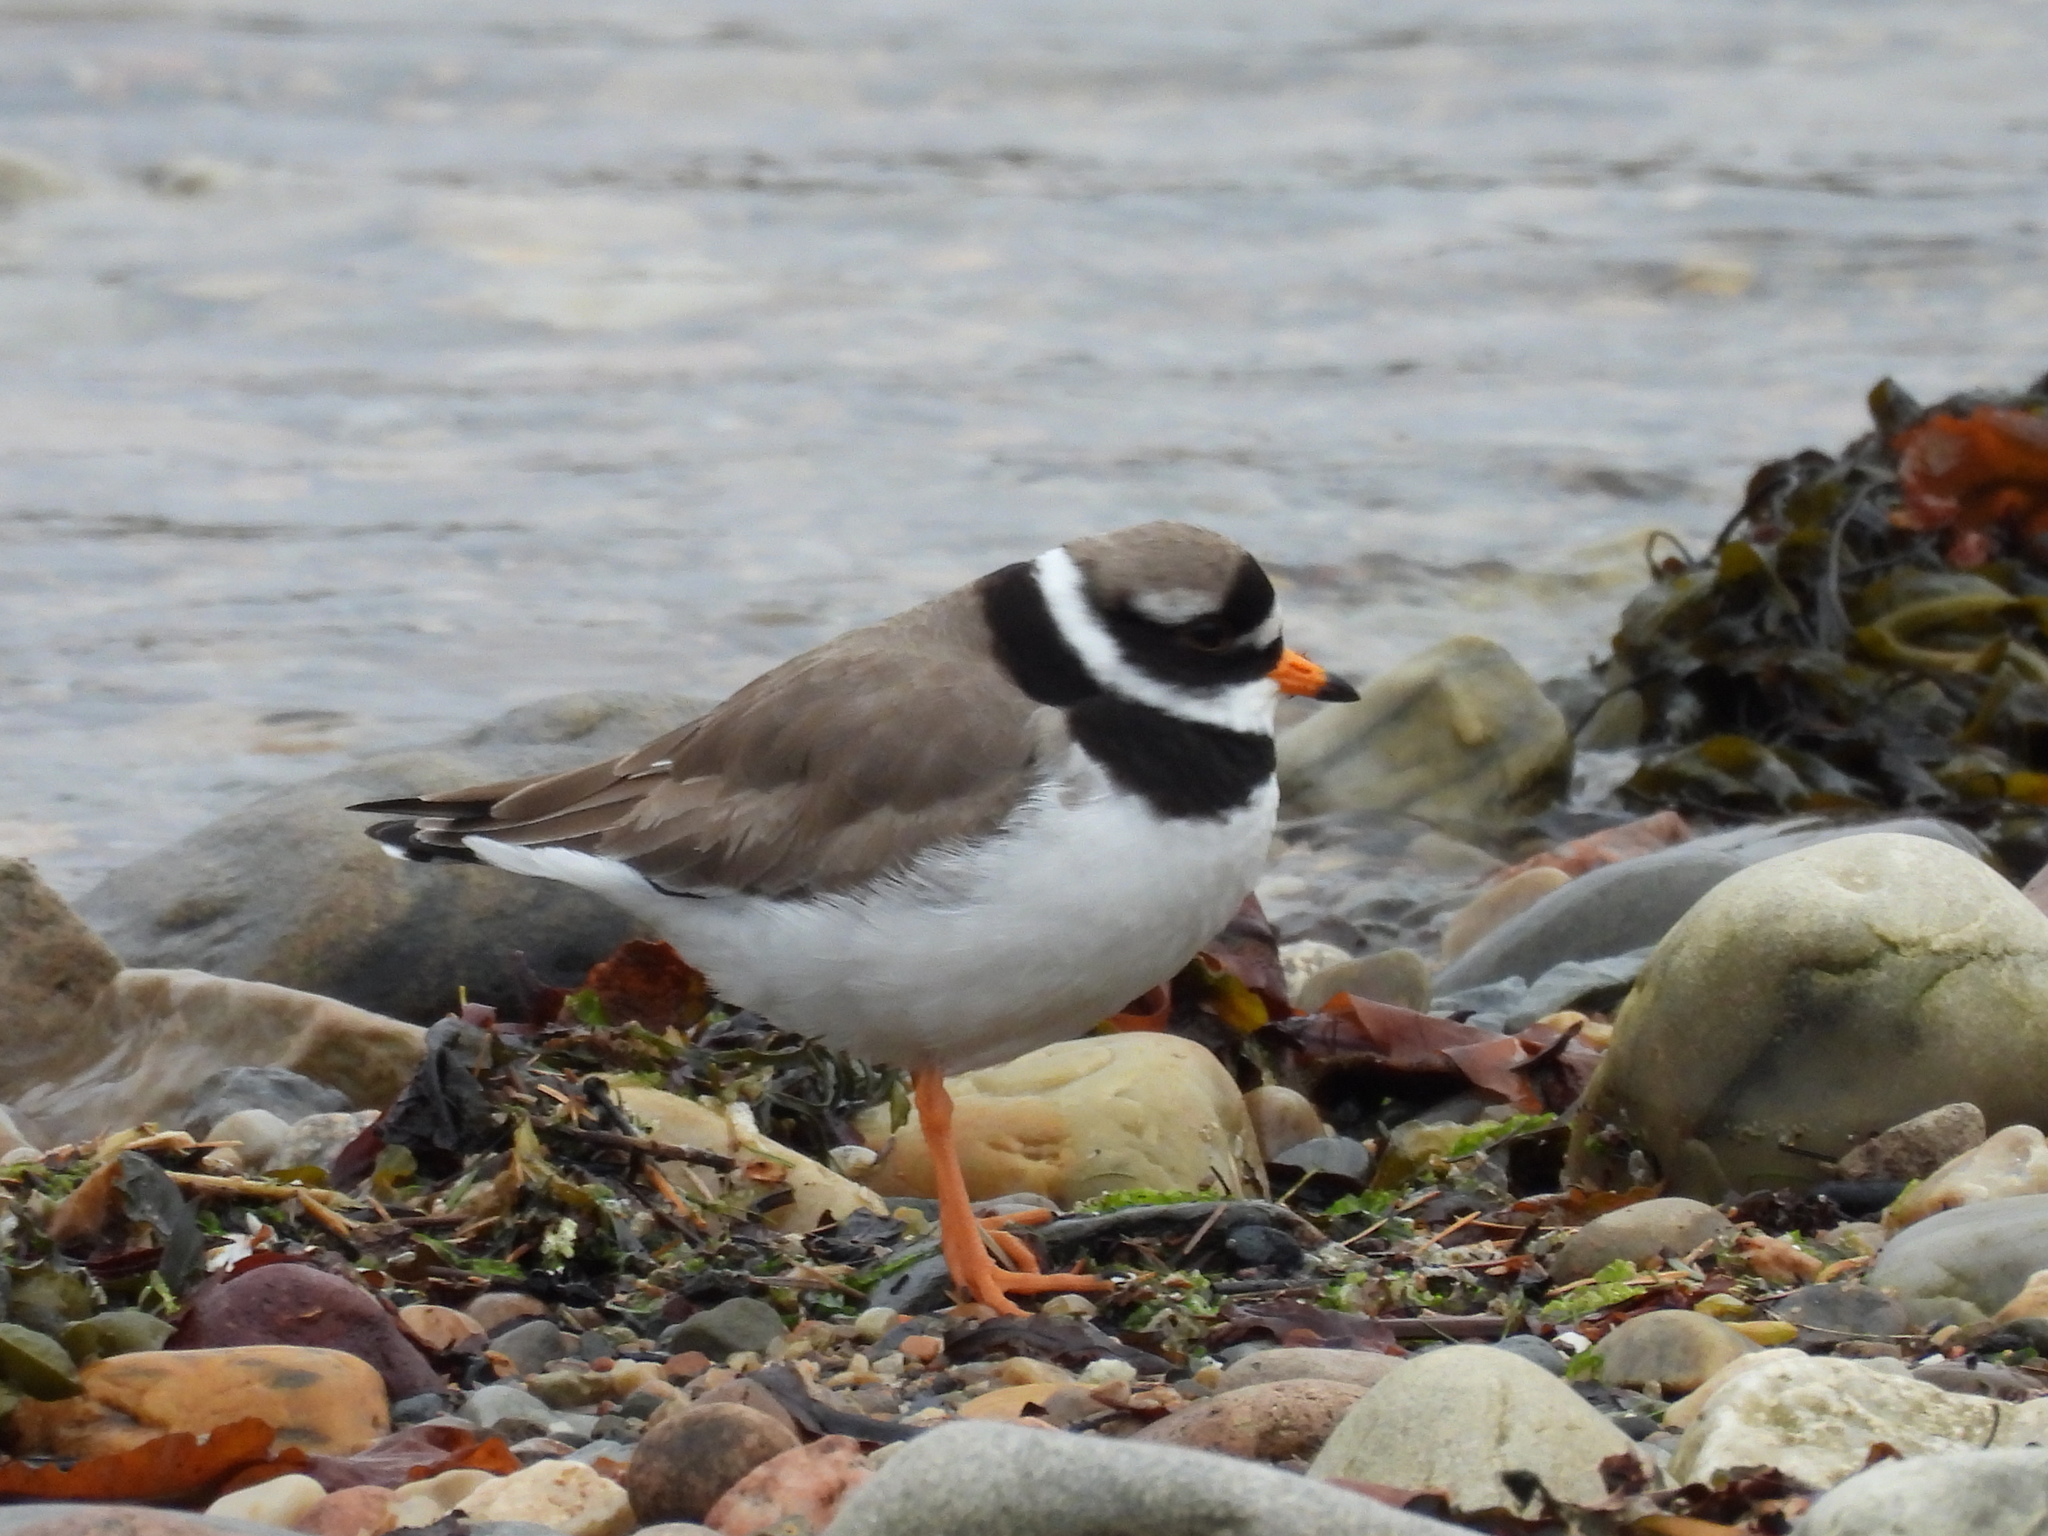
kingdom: Animalia
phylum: Chordata
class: Aves
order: Charadriiformes
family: Charadriidae
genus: Charadrius
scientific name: Charadrius hiaticula
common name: Common ringed plover
